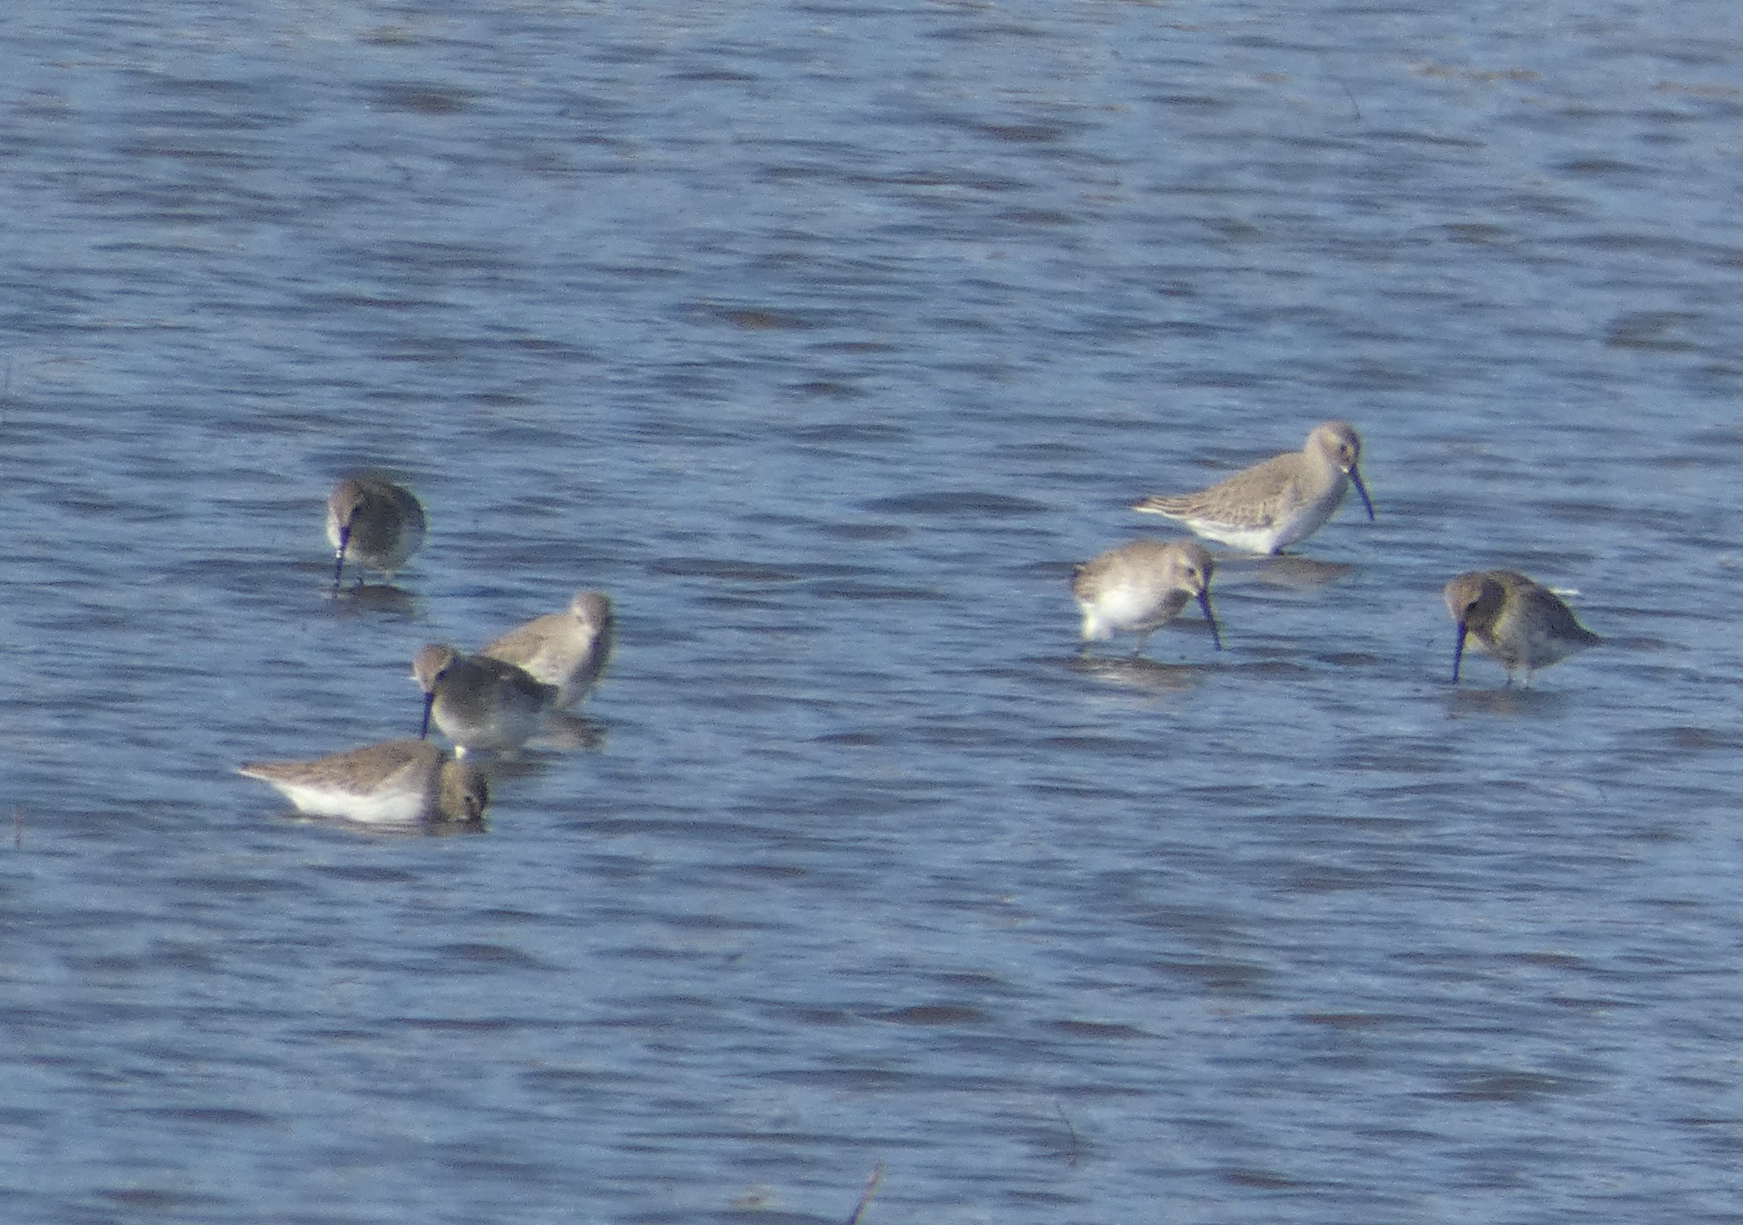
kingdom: Animalia
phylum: Chordata
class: Aves
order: Charadriiformes
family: Scolopacidae
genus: Calidris
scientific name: Calidris alpina
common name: Dunlin
